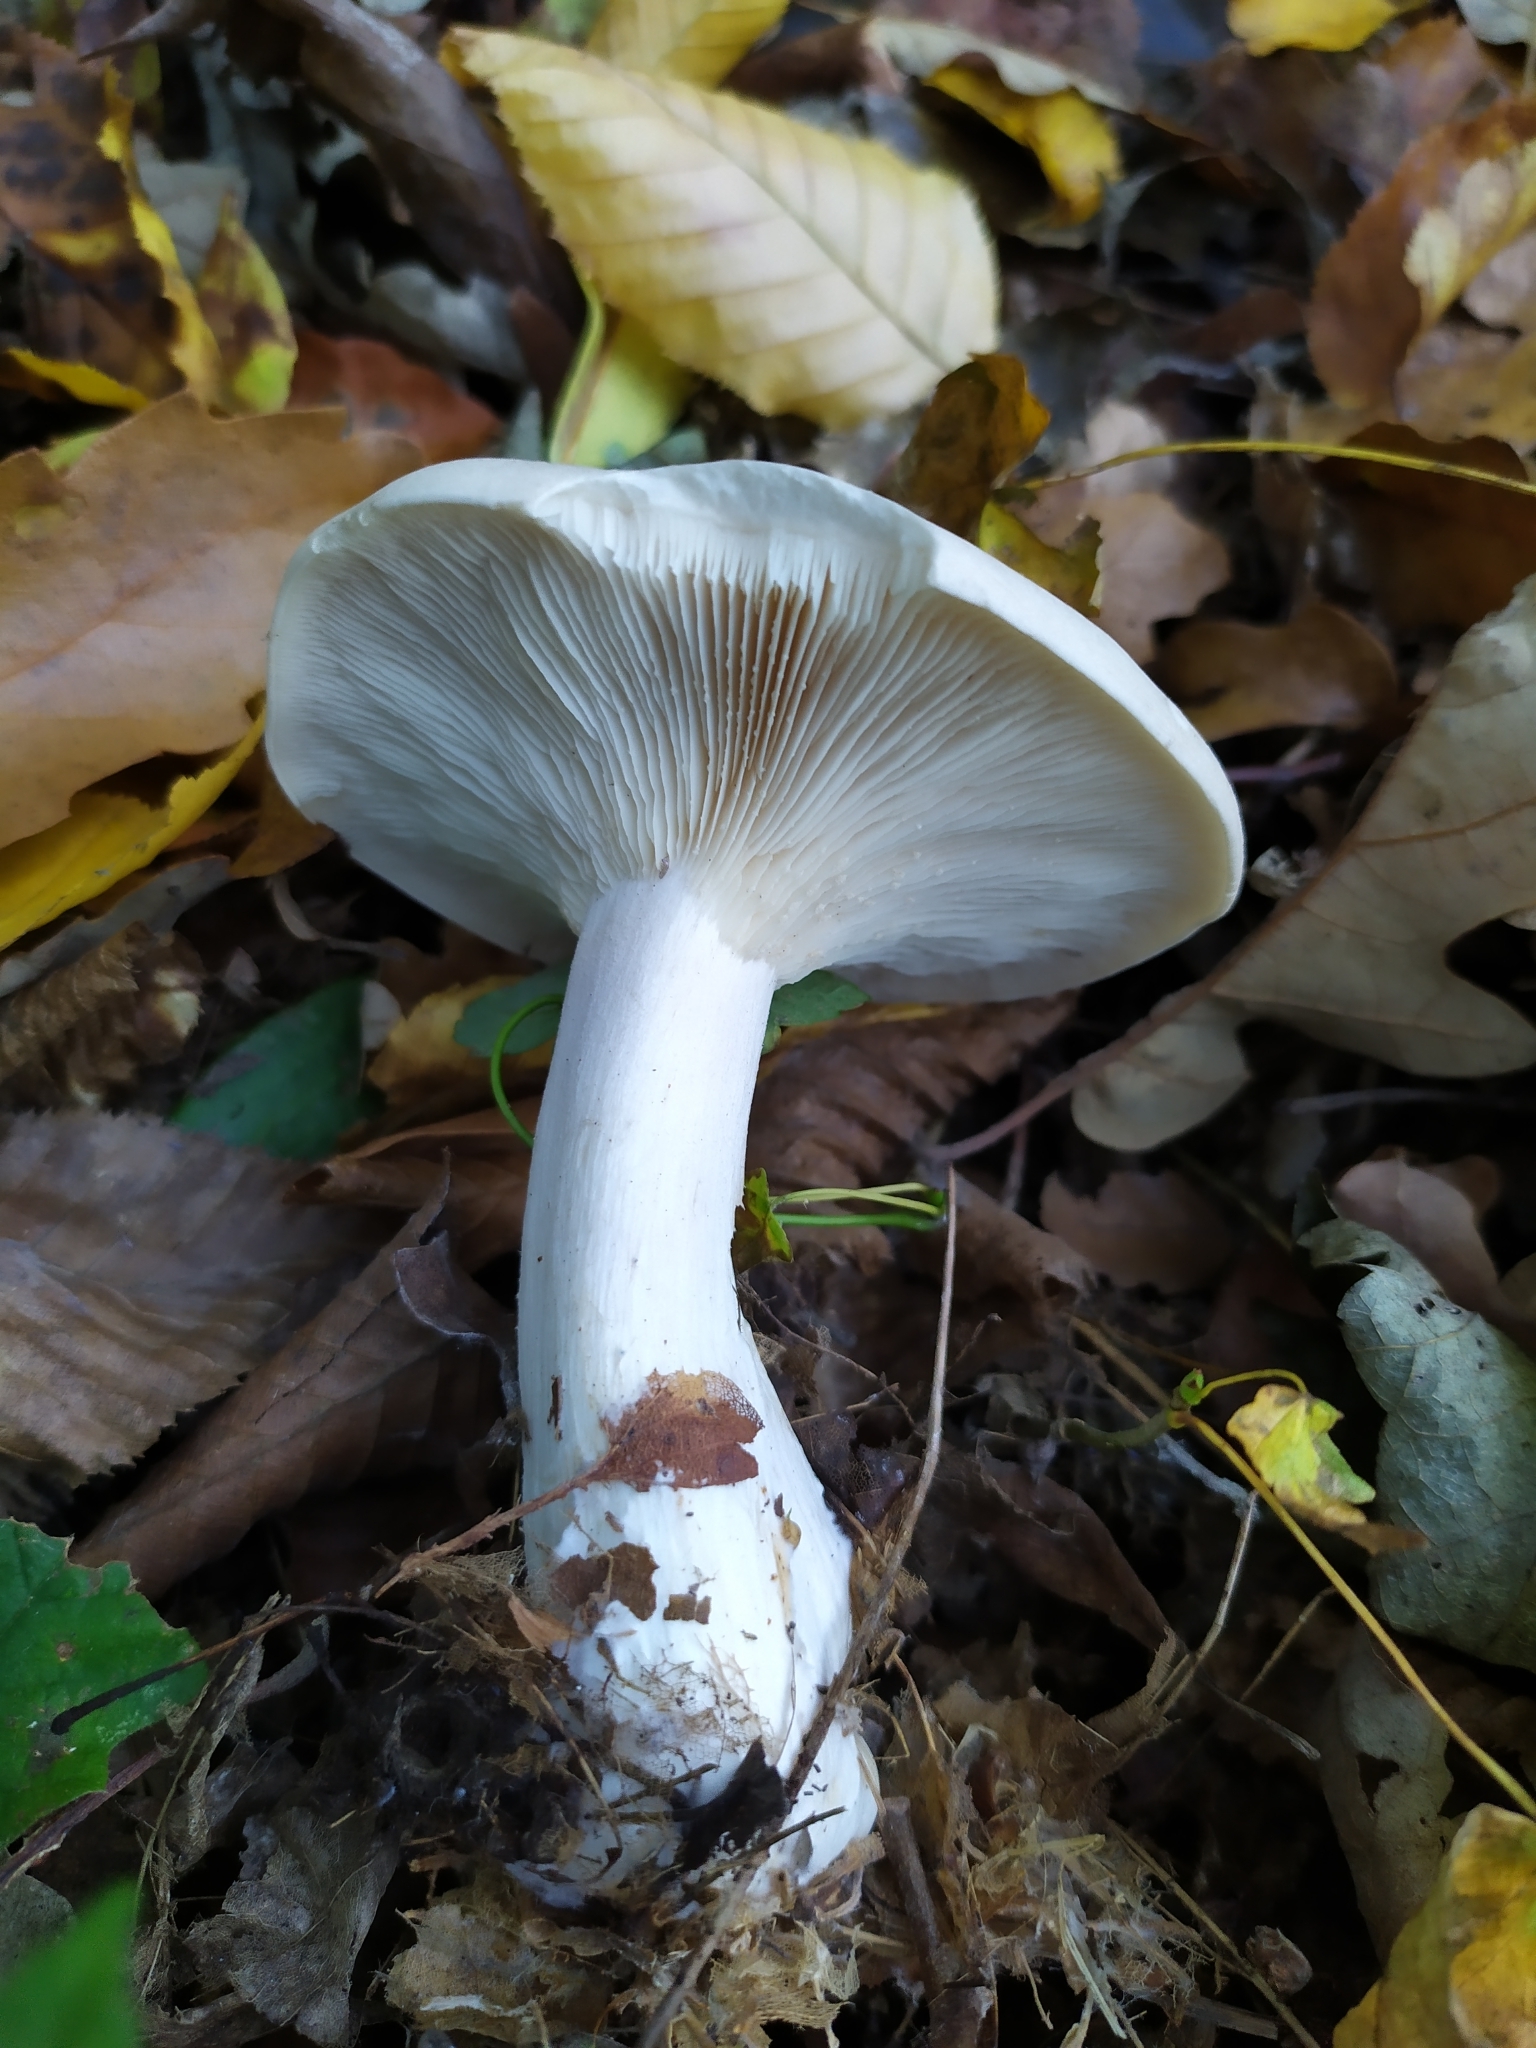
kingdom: Fungi
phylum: Basidiomycota
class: Agaricomycetes
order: Agaricales
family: Tricholomataceae
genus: Clitocybe
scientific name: Clitocybe nebularis
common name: Clouded agaric
